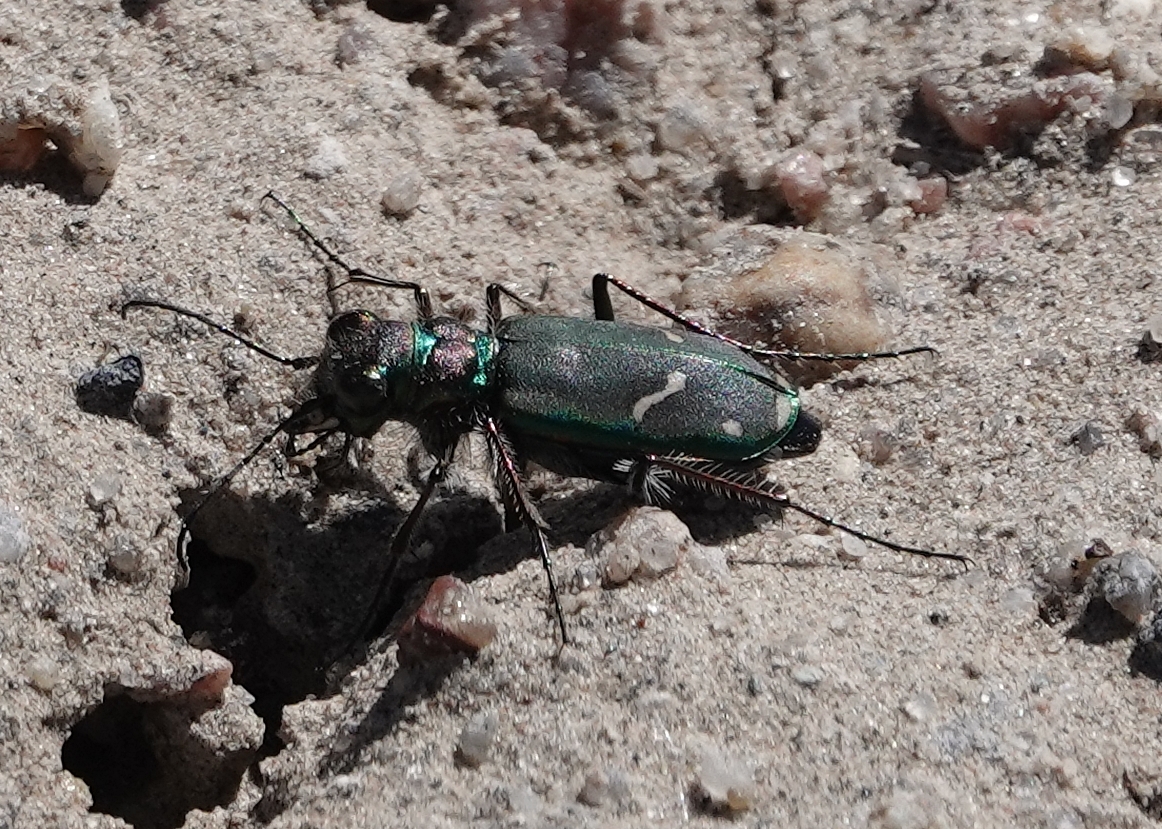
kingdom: Animalia
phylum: Arthropoda
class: Insecta
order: Coleoptera
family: Carabidae
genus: Cicindela
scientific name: Cicindela purpurea
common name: Cow path tiger beetle
